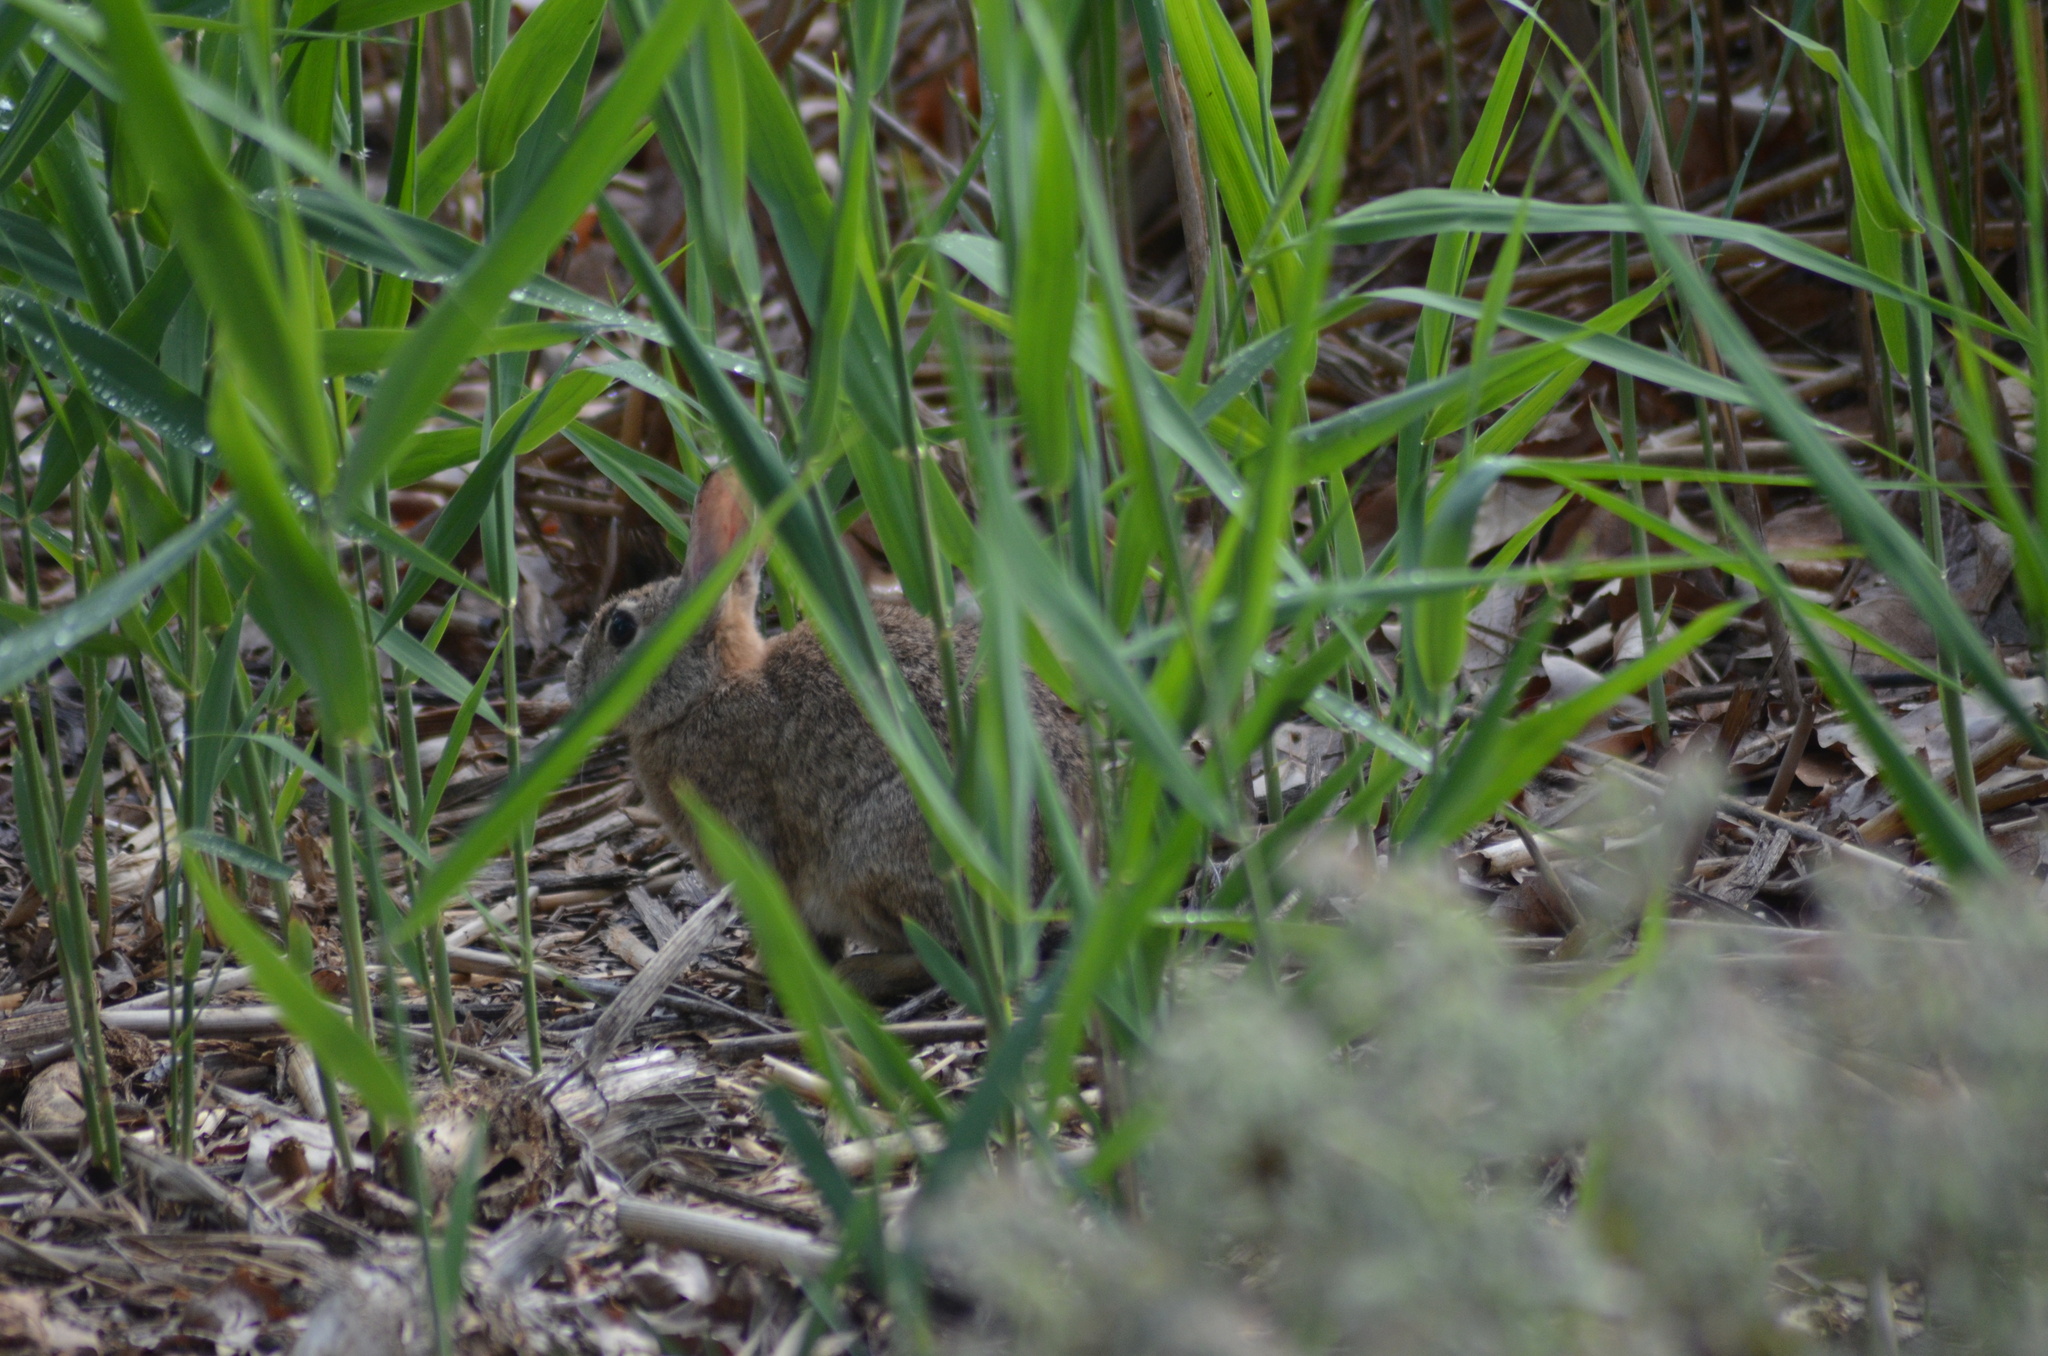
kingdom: Animalia
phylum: Chordata
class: Mammalia
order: Lagomorpha
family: Leporidae
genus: Oryctolagus
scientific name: Oryctolagus cuniculus
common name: European rabbit
